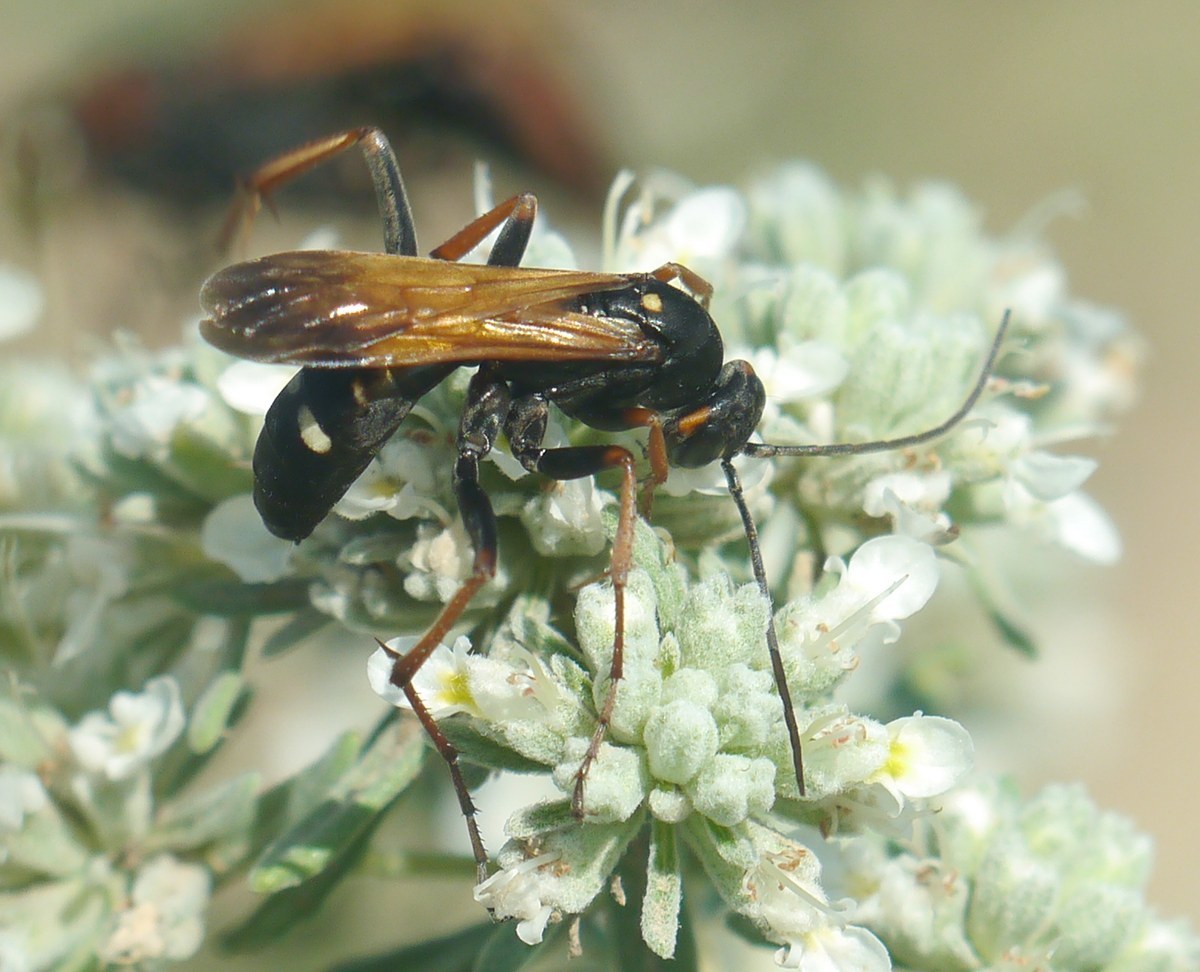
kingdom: Animalia
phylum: Arthropoda
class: Insecta
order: Hymenoptera
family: Pompilidae
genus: Cryptocheilus
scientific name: Cryptocheilus variabilis
